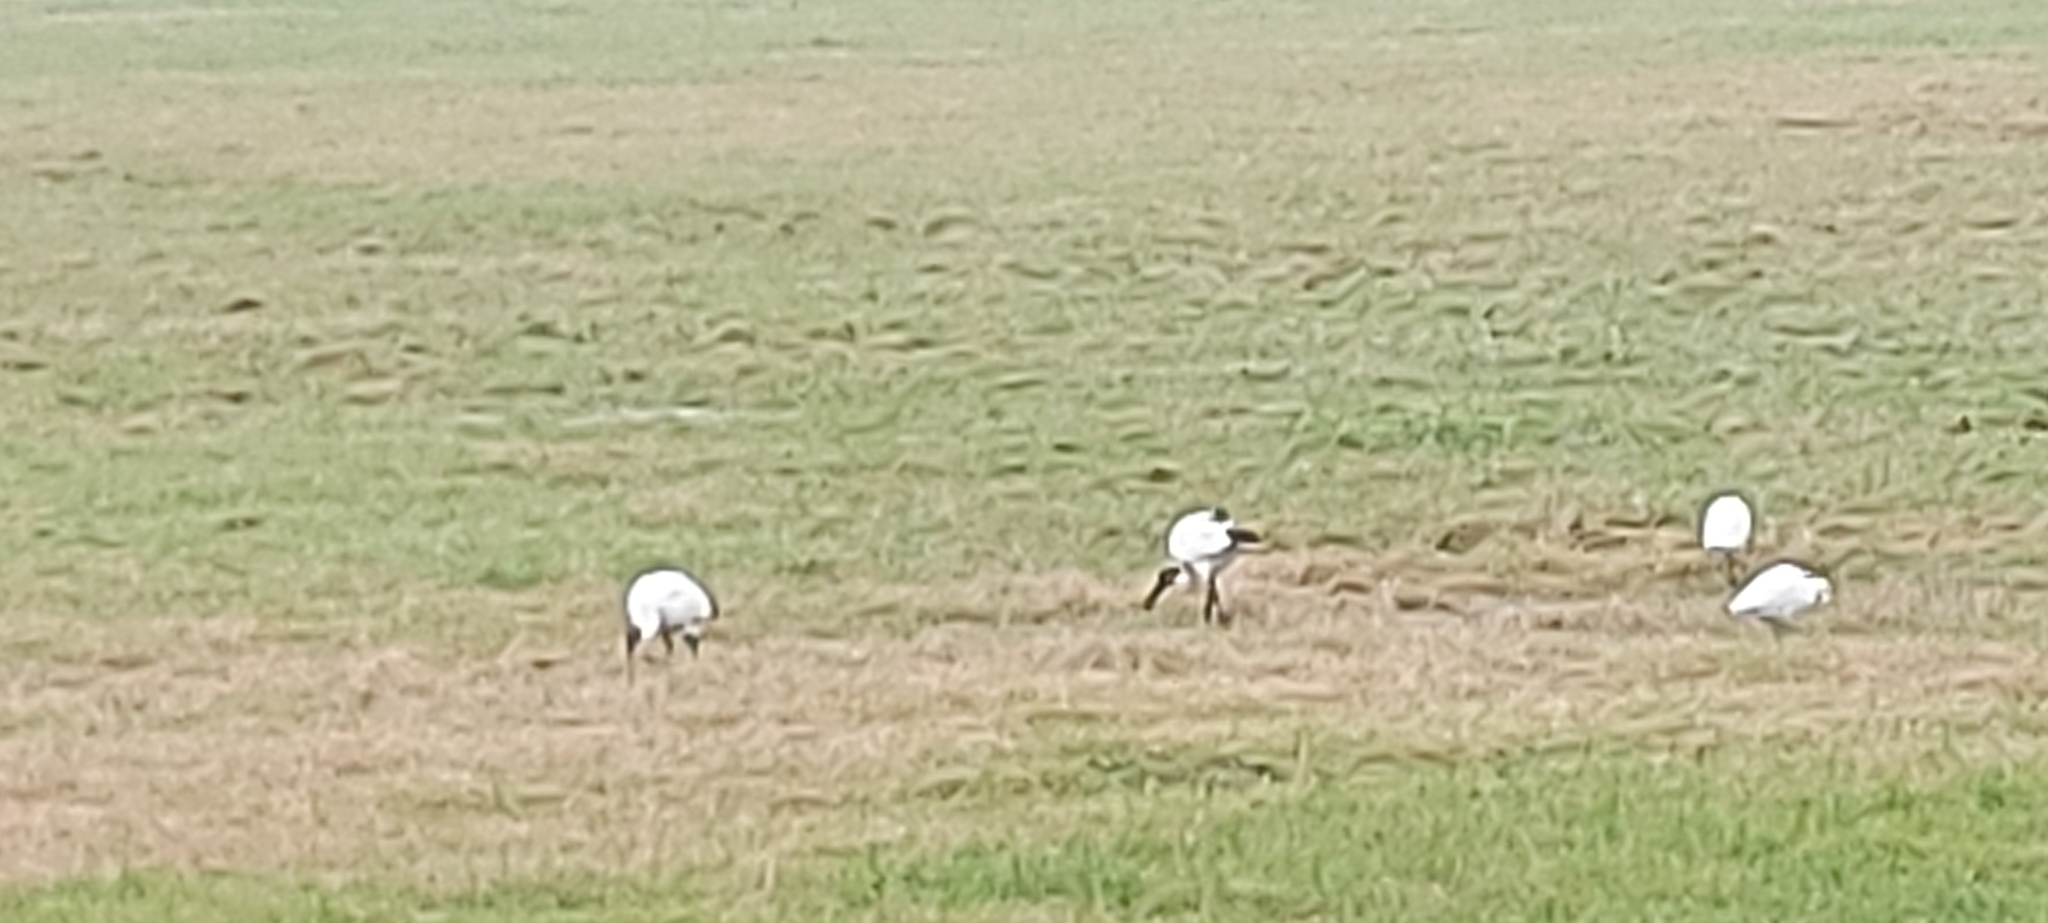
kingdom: Animalia
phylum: Chordata
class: Aves
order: Pelecaniformes
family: Threskiornithidae
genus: Threskiornis
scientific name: Threskiornis aethiopicus
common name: Sacred ibis
